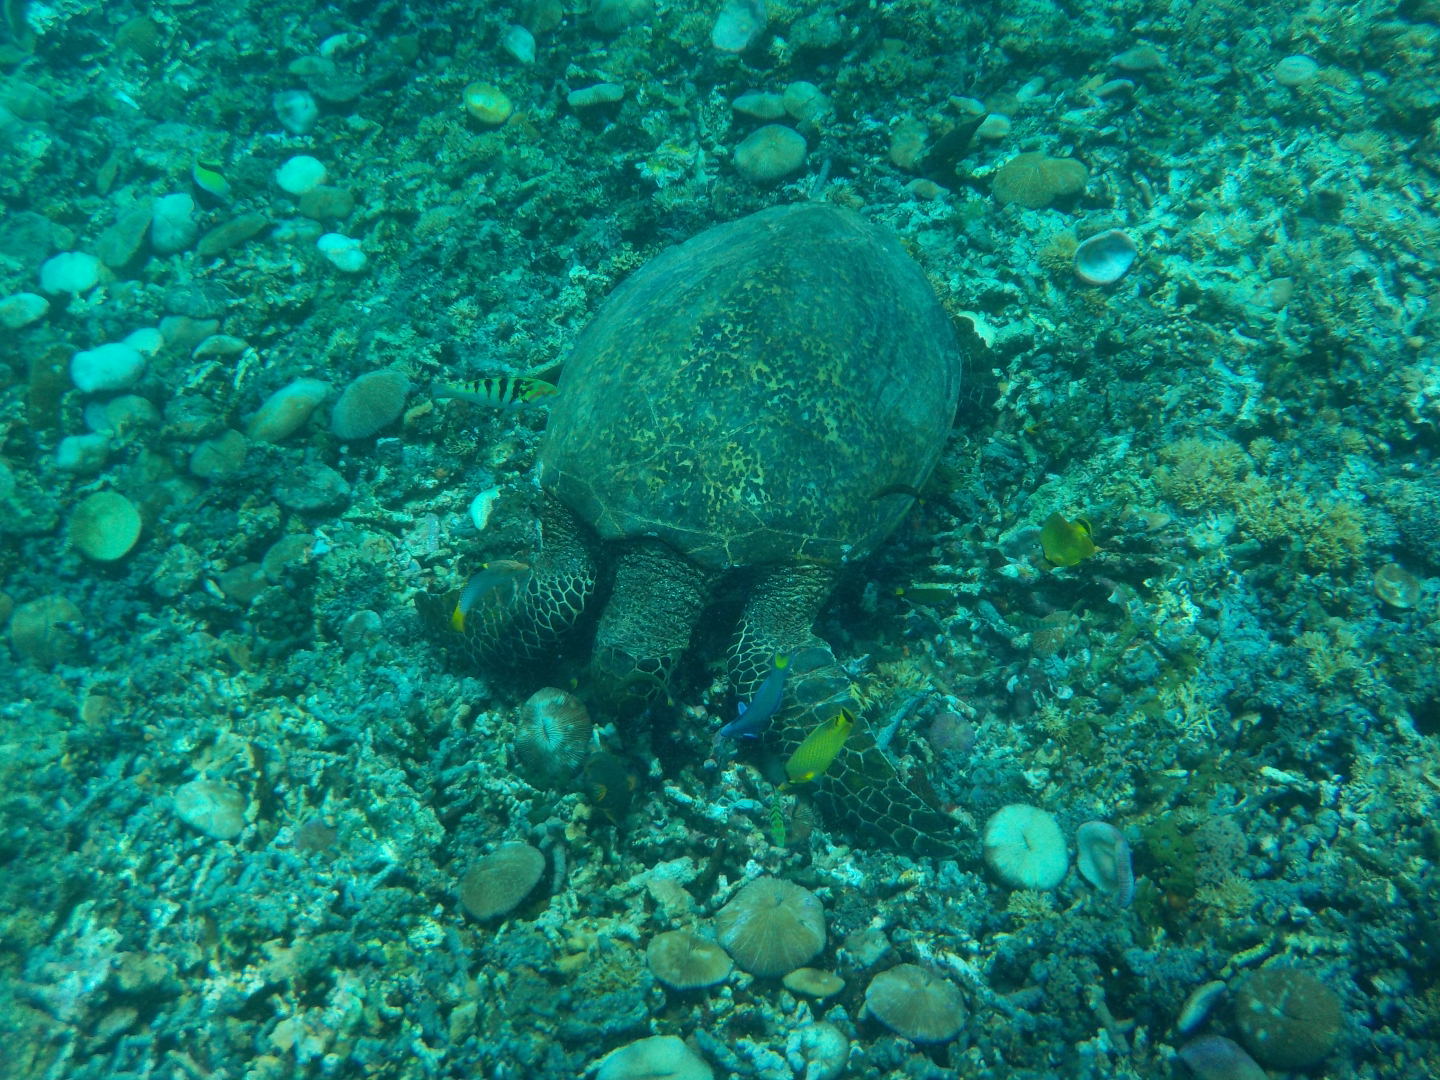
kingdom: Animalia
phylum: Chordata
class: Testudines
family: Cheloniidae
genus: Eretmochelys
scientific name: Eretmochelys imbricata
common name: Hawksbill turtle
